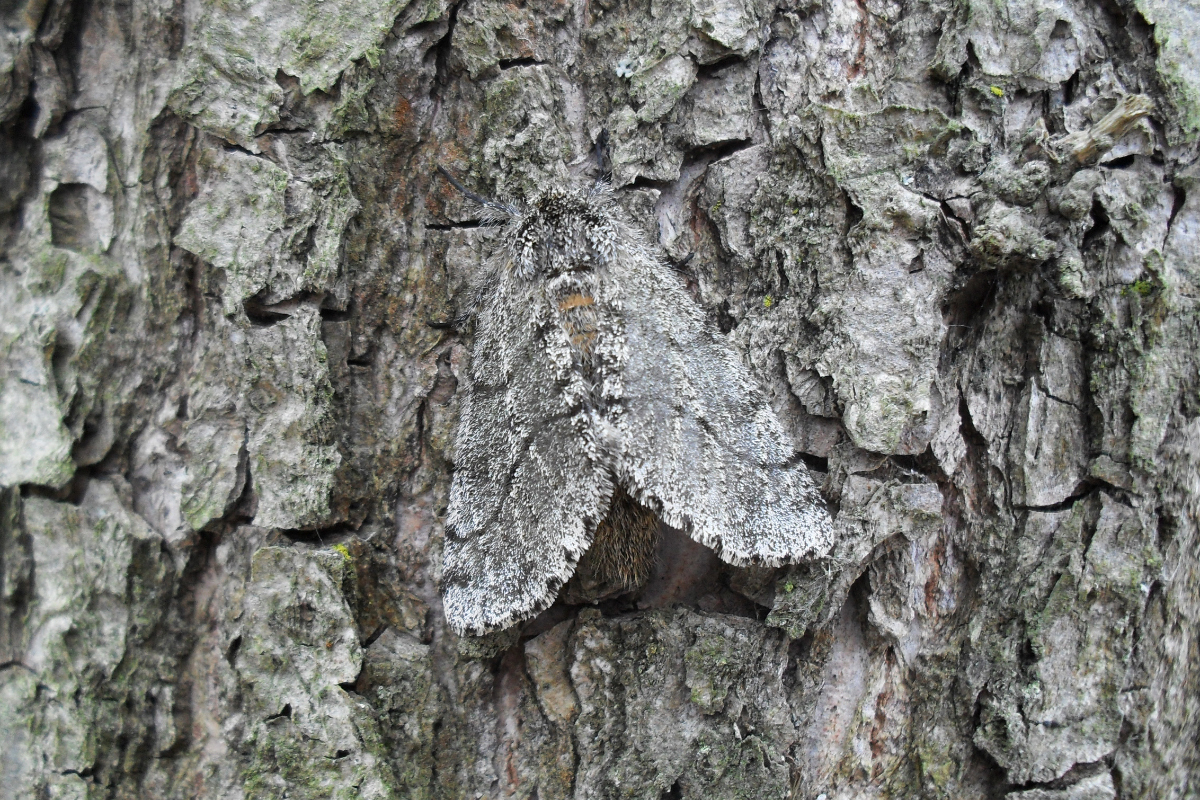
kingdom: Animalia
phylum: Arthropoda
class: Insecta
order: Lepidoptera
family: Geometridae
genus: Lycia
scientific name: Lycia hirtaria
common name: Brindled beauty
